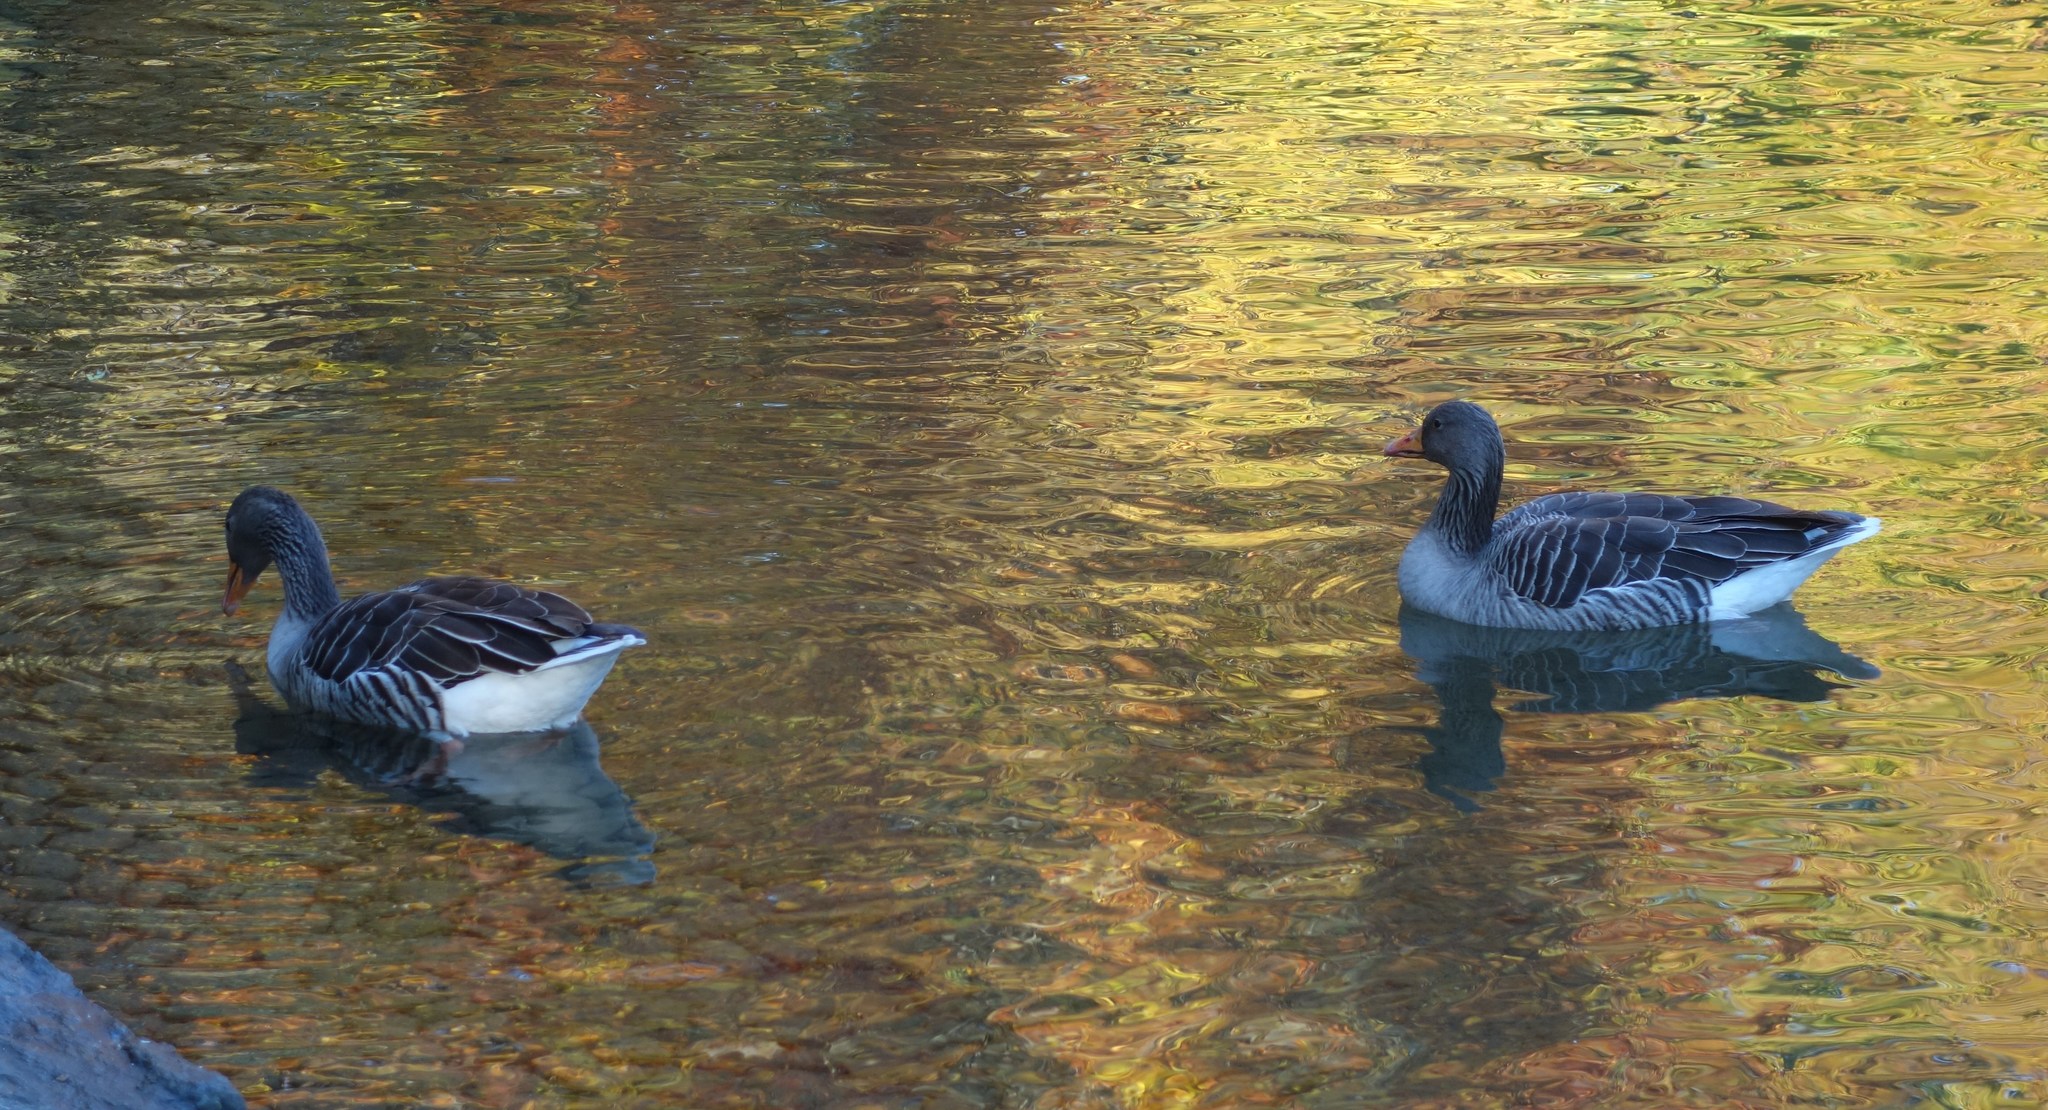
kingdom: Animalia
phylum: Chordata
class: Aves
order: Anseriformes
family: Anatidae
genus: Anser
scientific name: Anser anser
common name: Greylag goose
